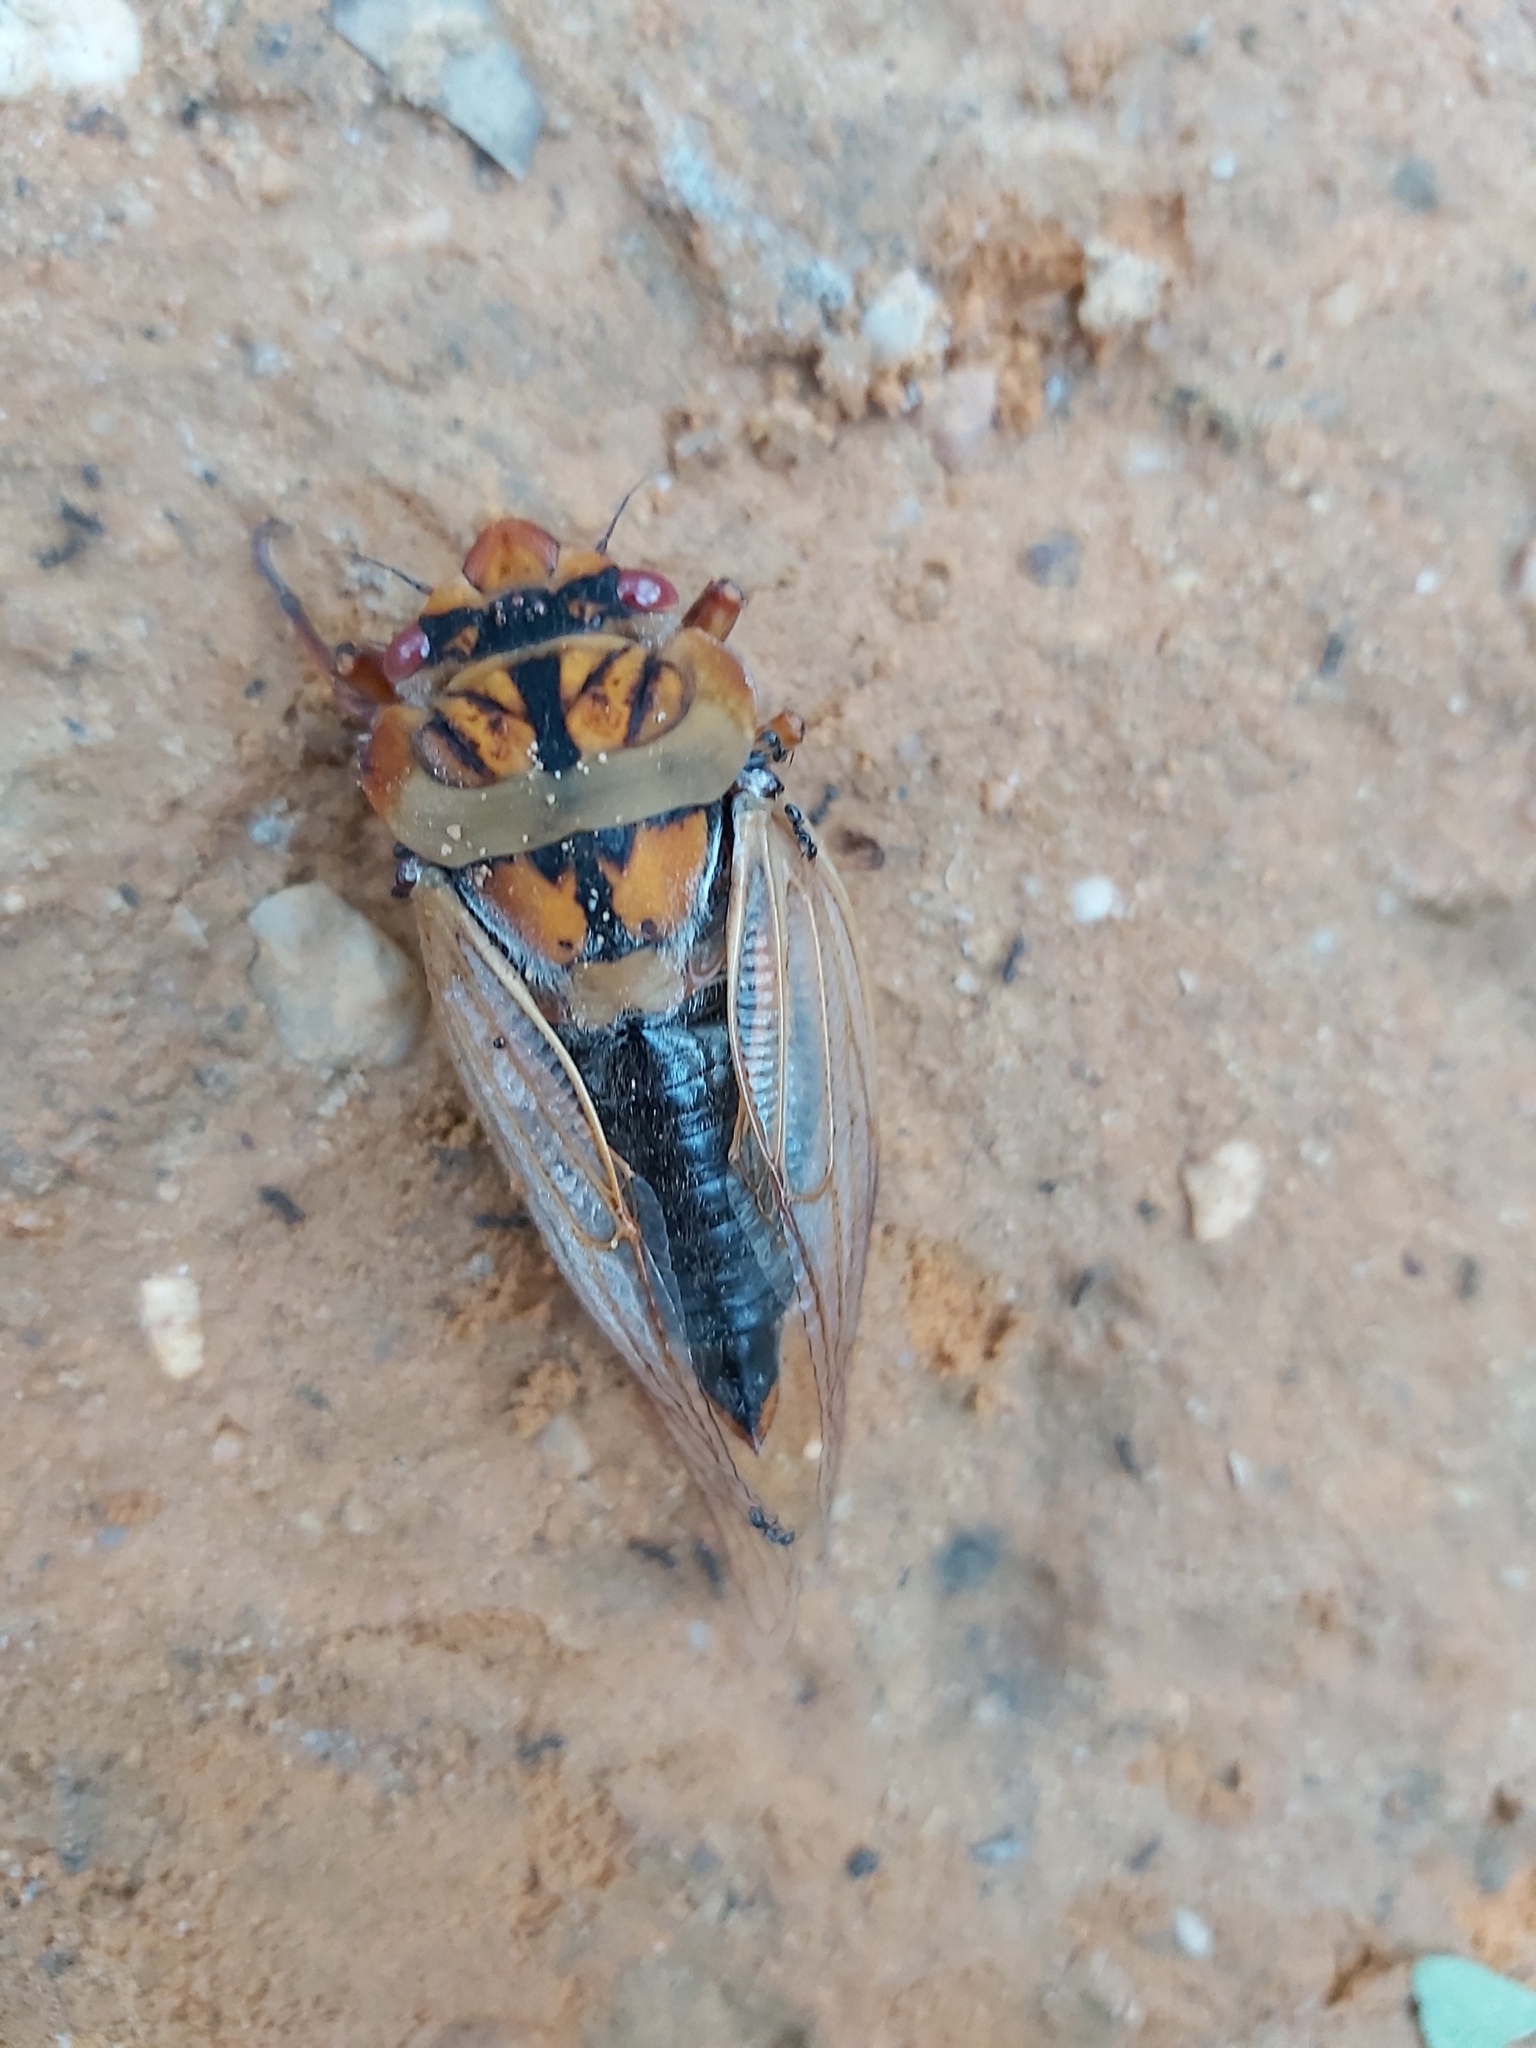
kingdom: Animalia
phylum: Arthropoda
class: Insecta
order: Hemiptera
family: Cicadidae
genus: Cyclochila
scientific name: Cyclochila australasiae
